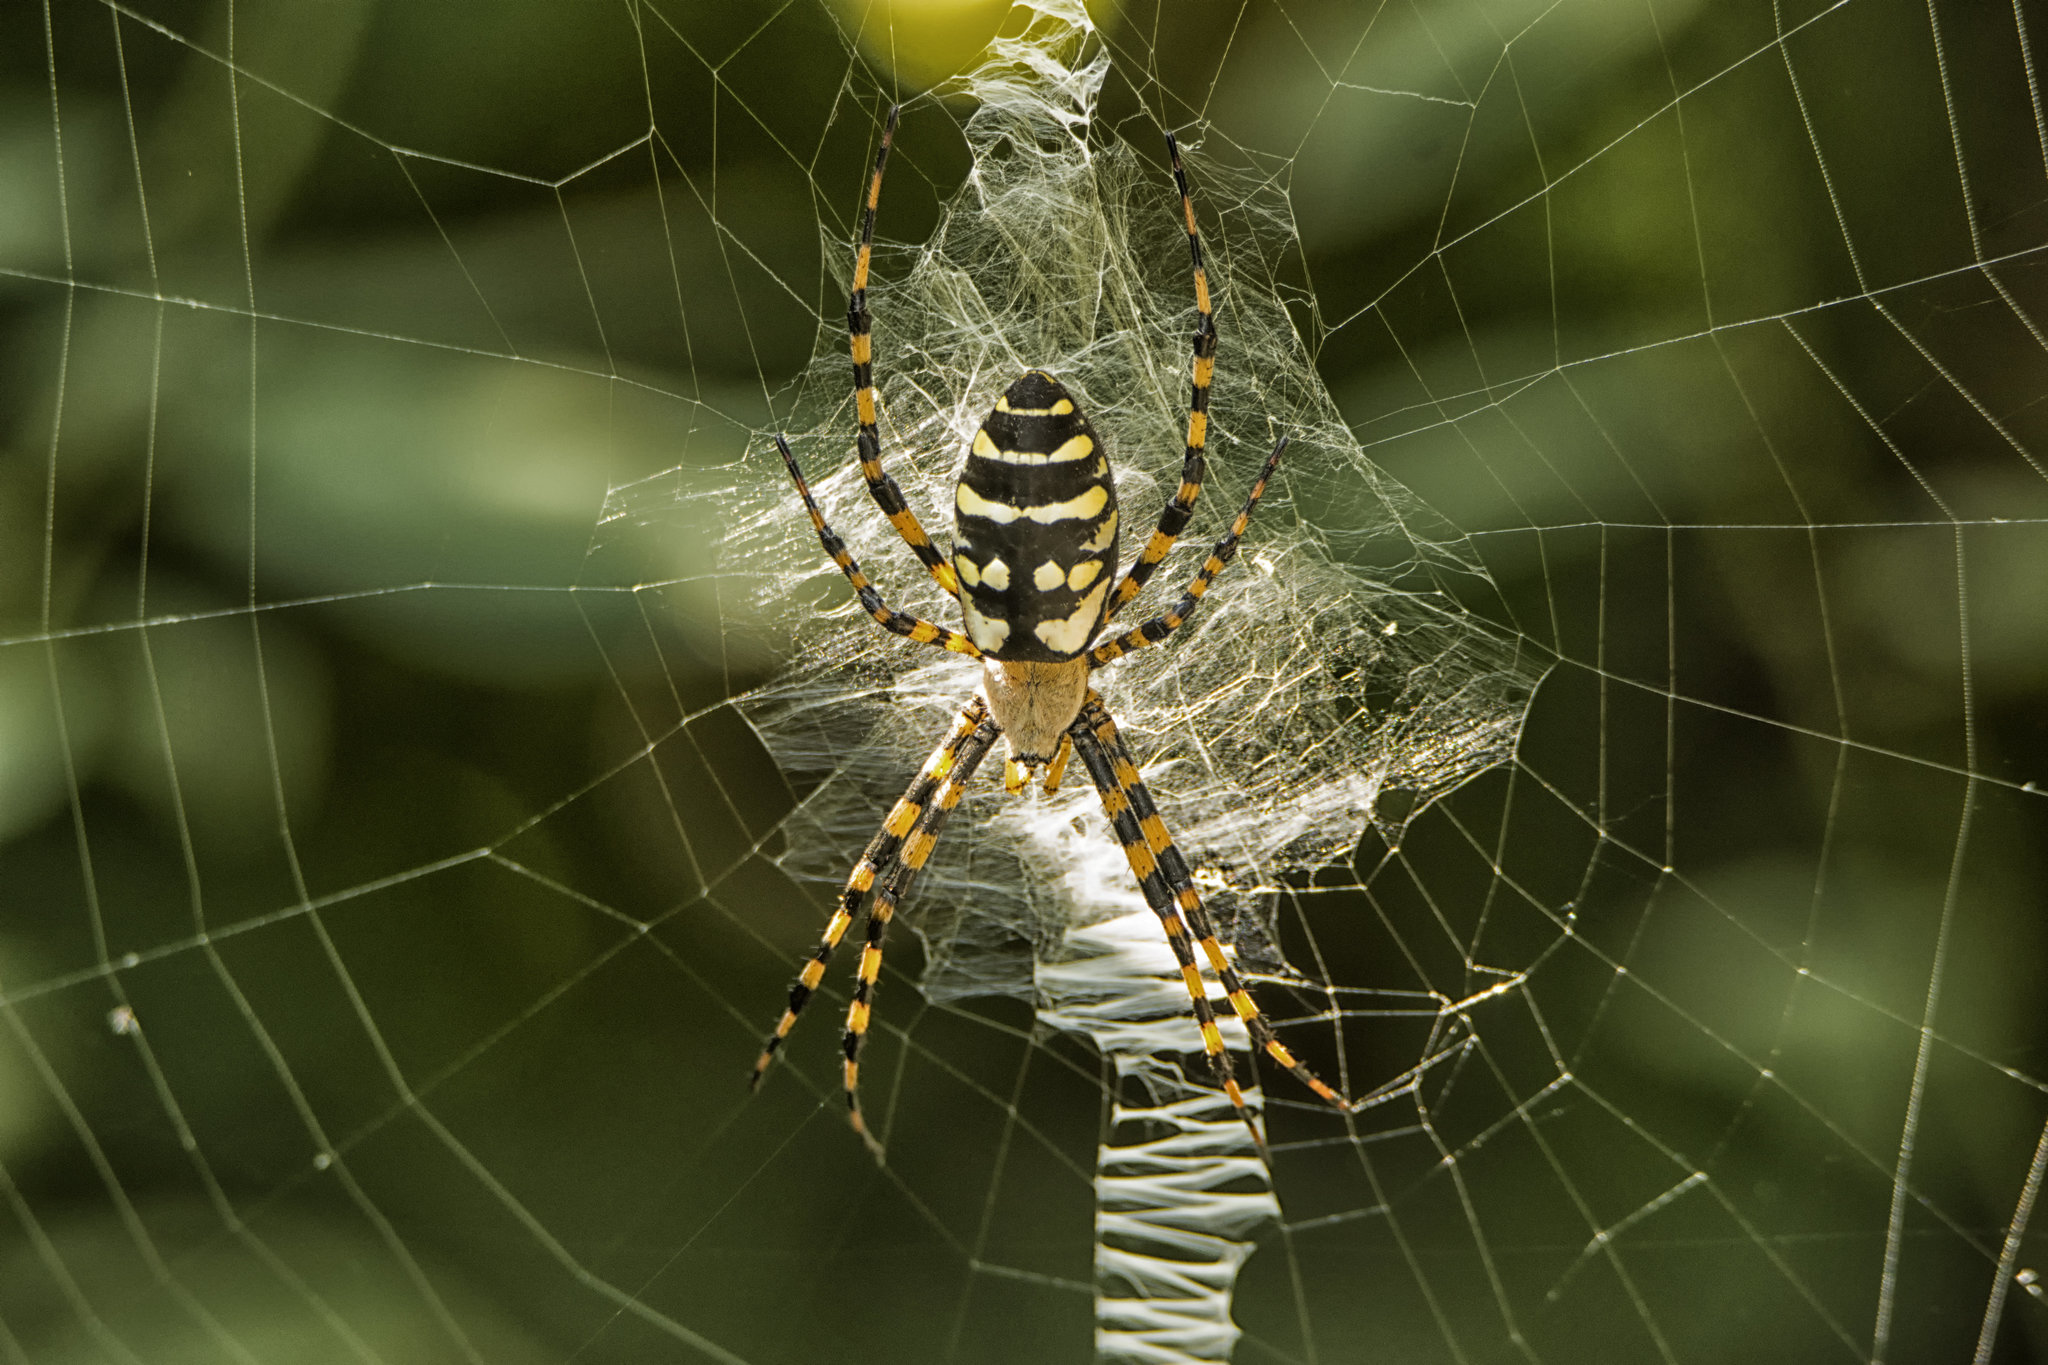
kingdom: Animalia
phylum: Arthropoda
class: Arachnida
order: Araneae
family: Araneidae
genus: Argiope
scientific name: Argiope aurantia
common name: Orb weavers
